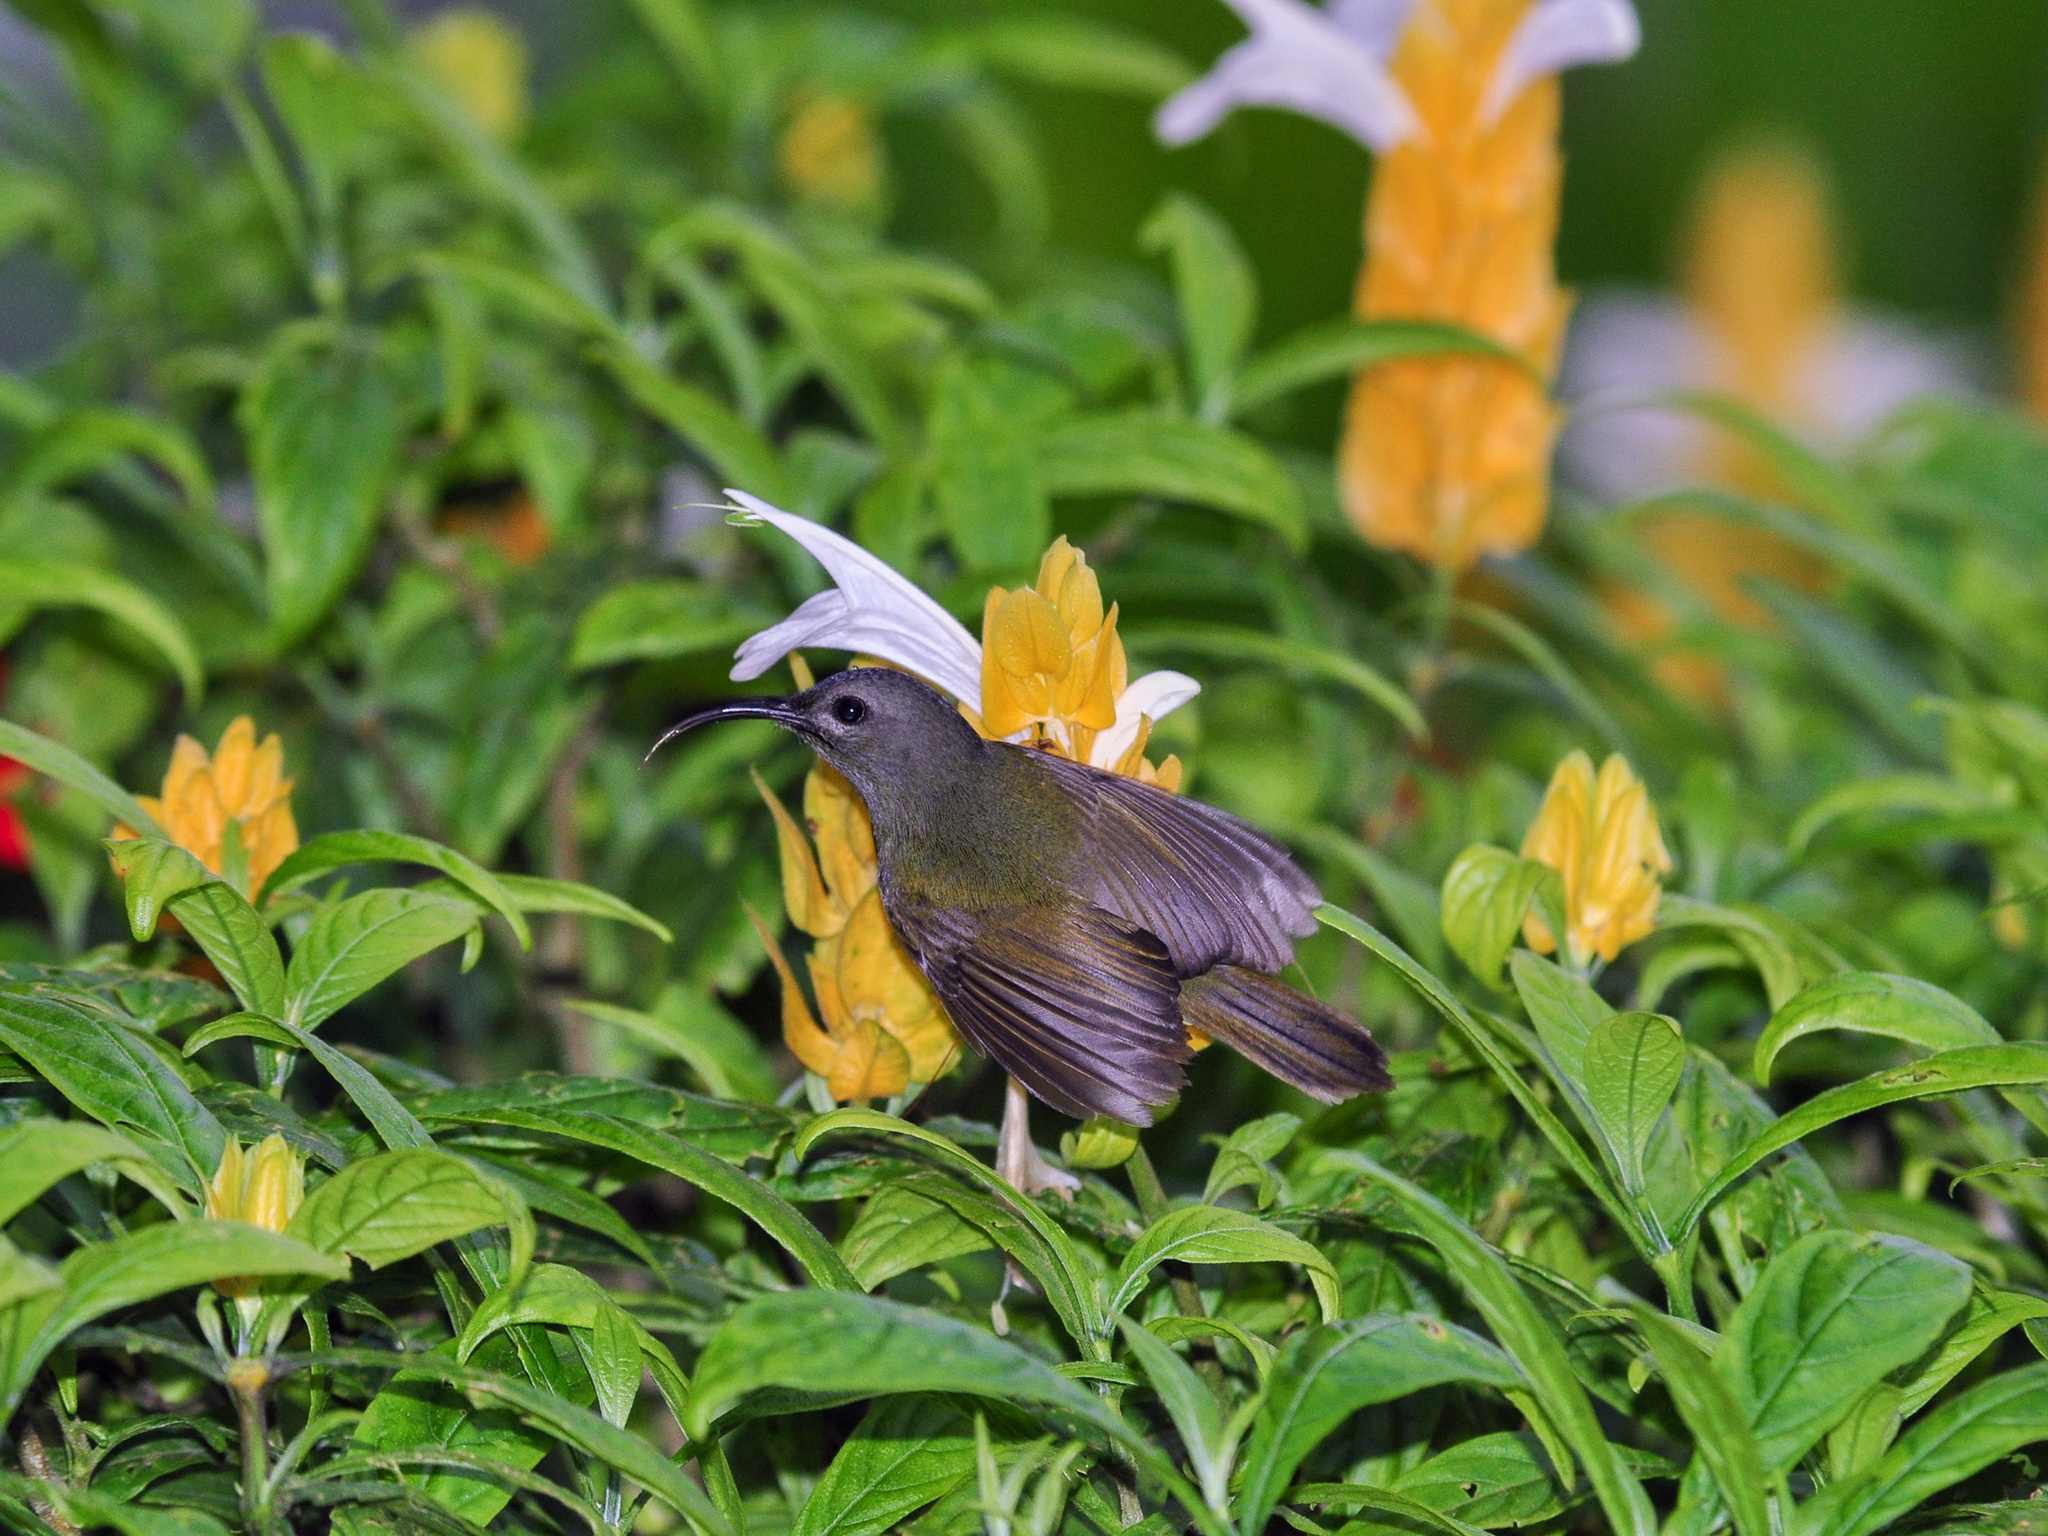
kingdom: Animalia
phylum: Chordata
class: Aves
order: Passeriformes
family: Nectariniidae
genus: Aethopyga
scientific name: Aethopyga saturata
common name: Black-throated sunbird
